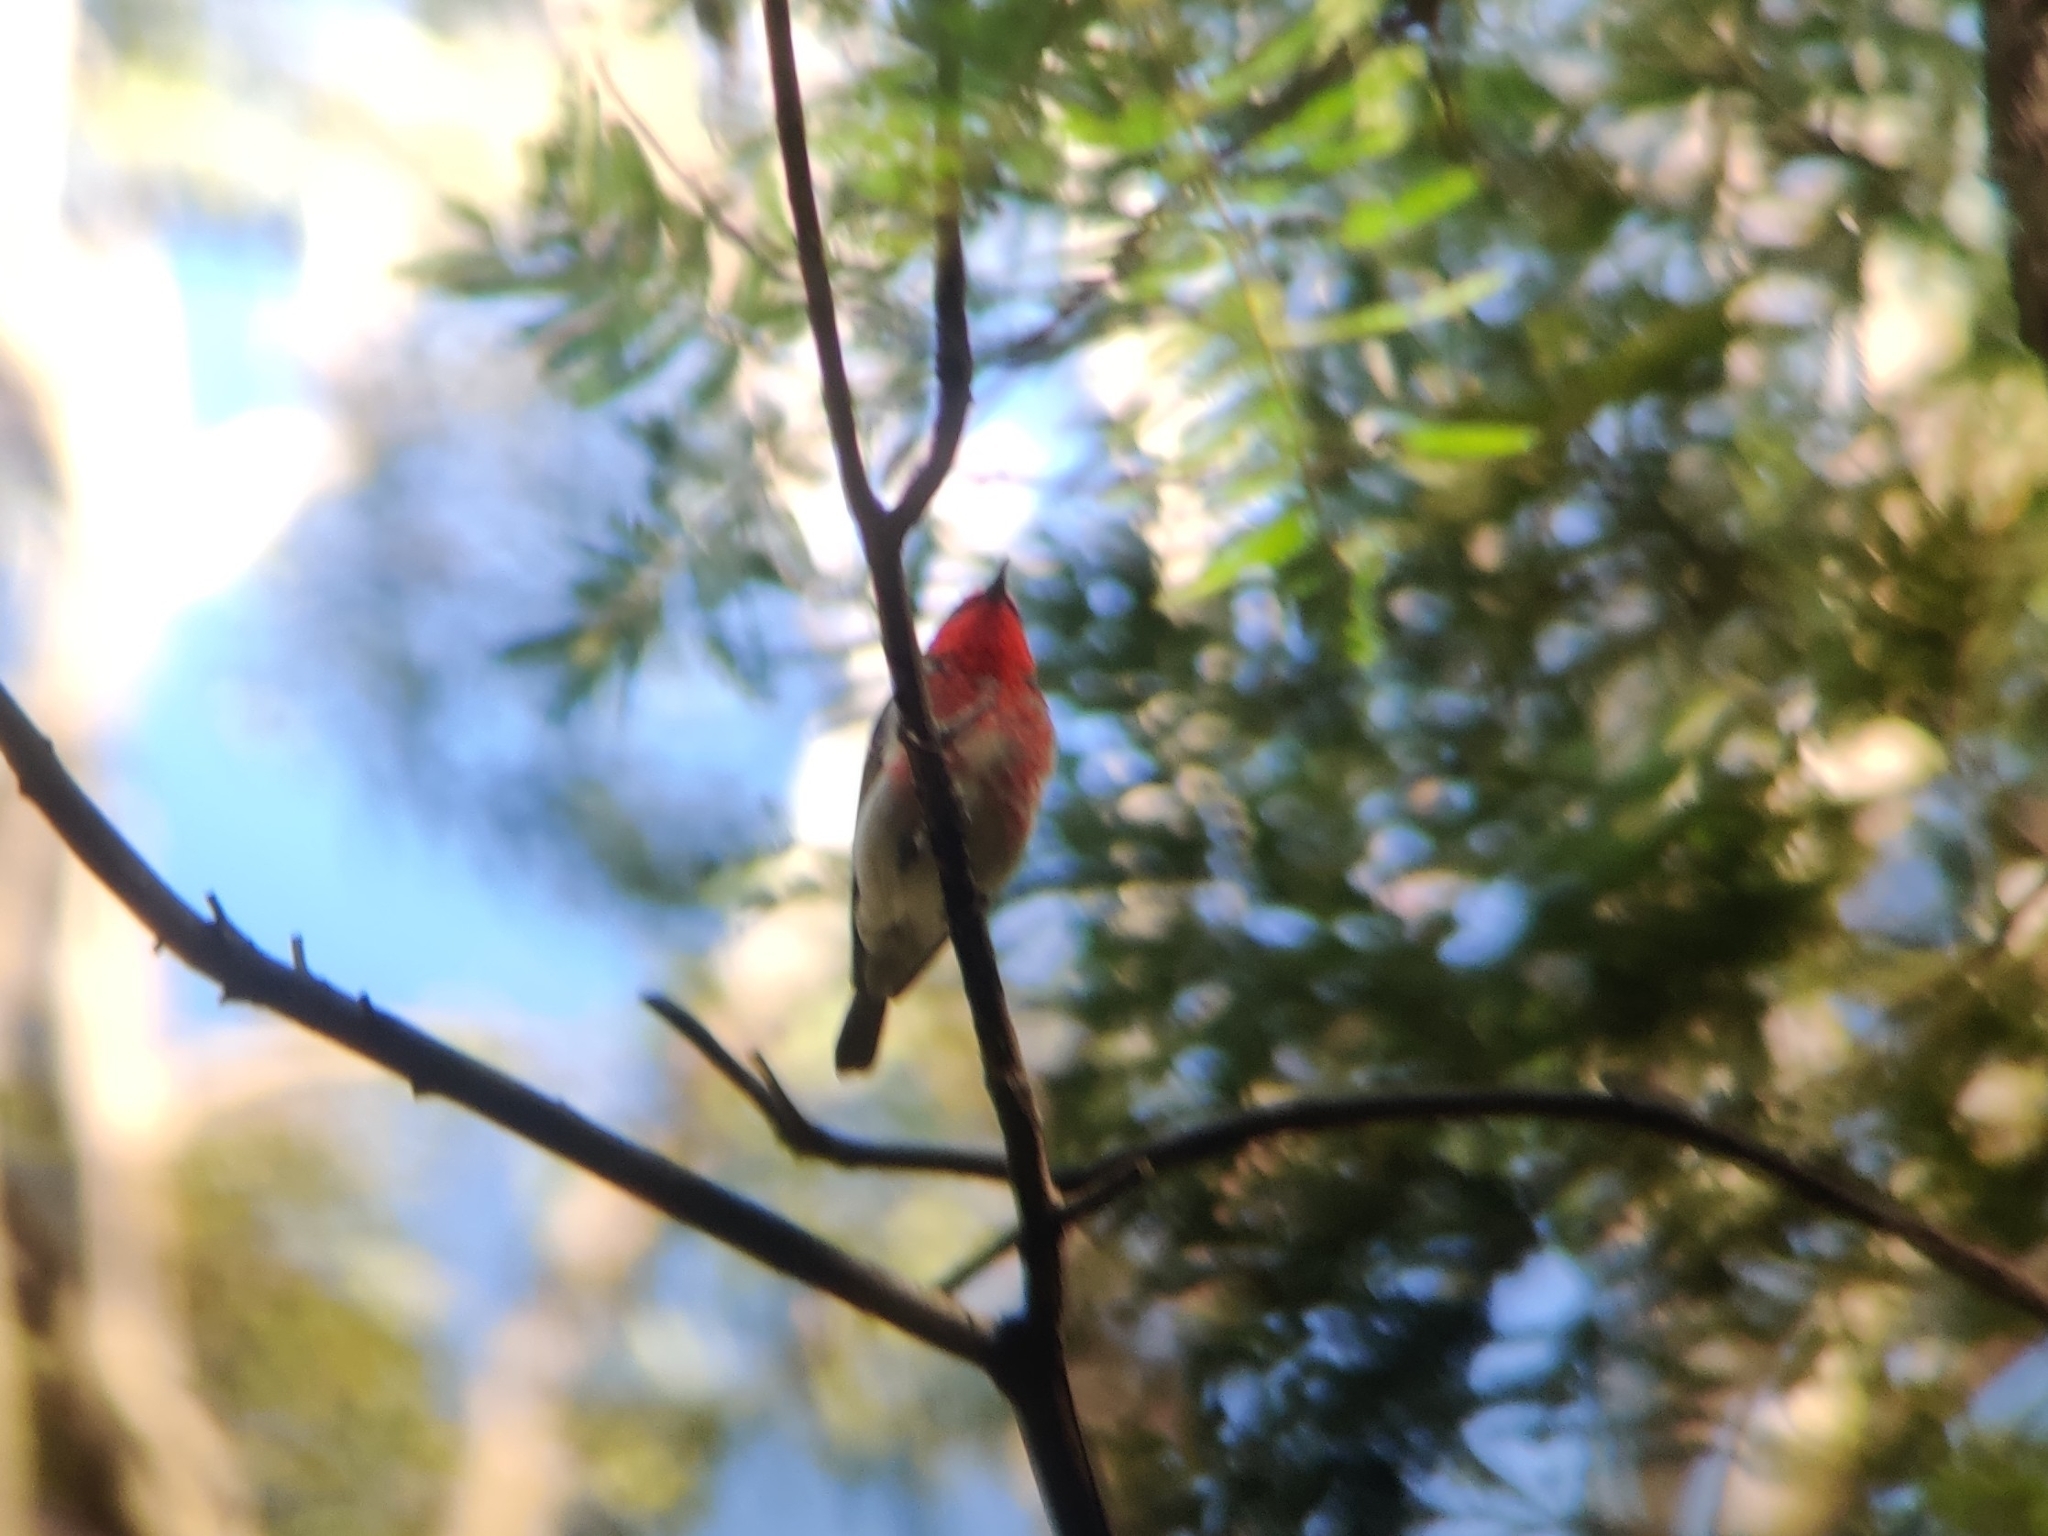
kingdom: Animalia
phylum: Chordata
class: Aves
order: Passeriformes
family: Meliphagidae
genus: Myzomela
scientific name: Myzomela sanguinolenta
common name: Scarlet myzomela
